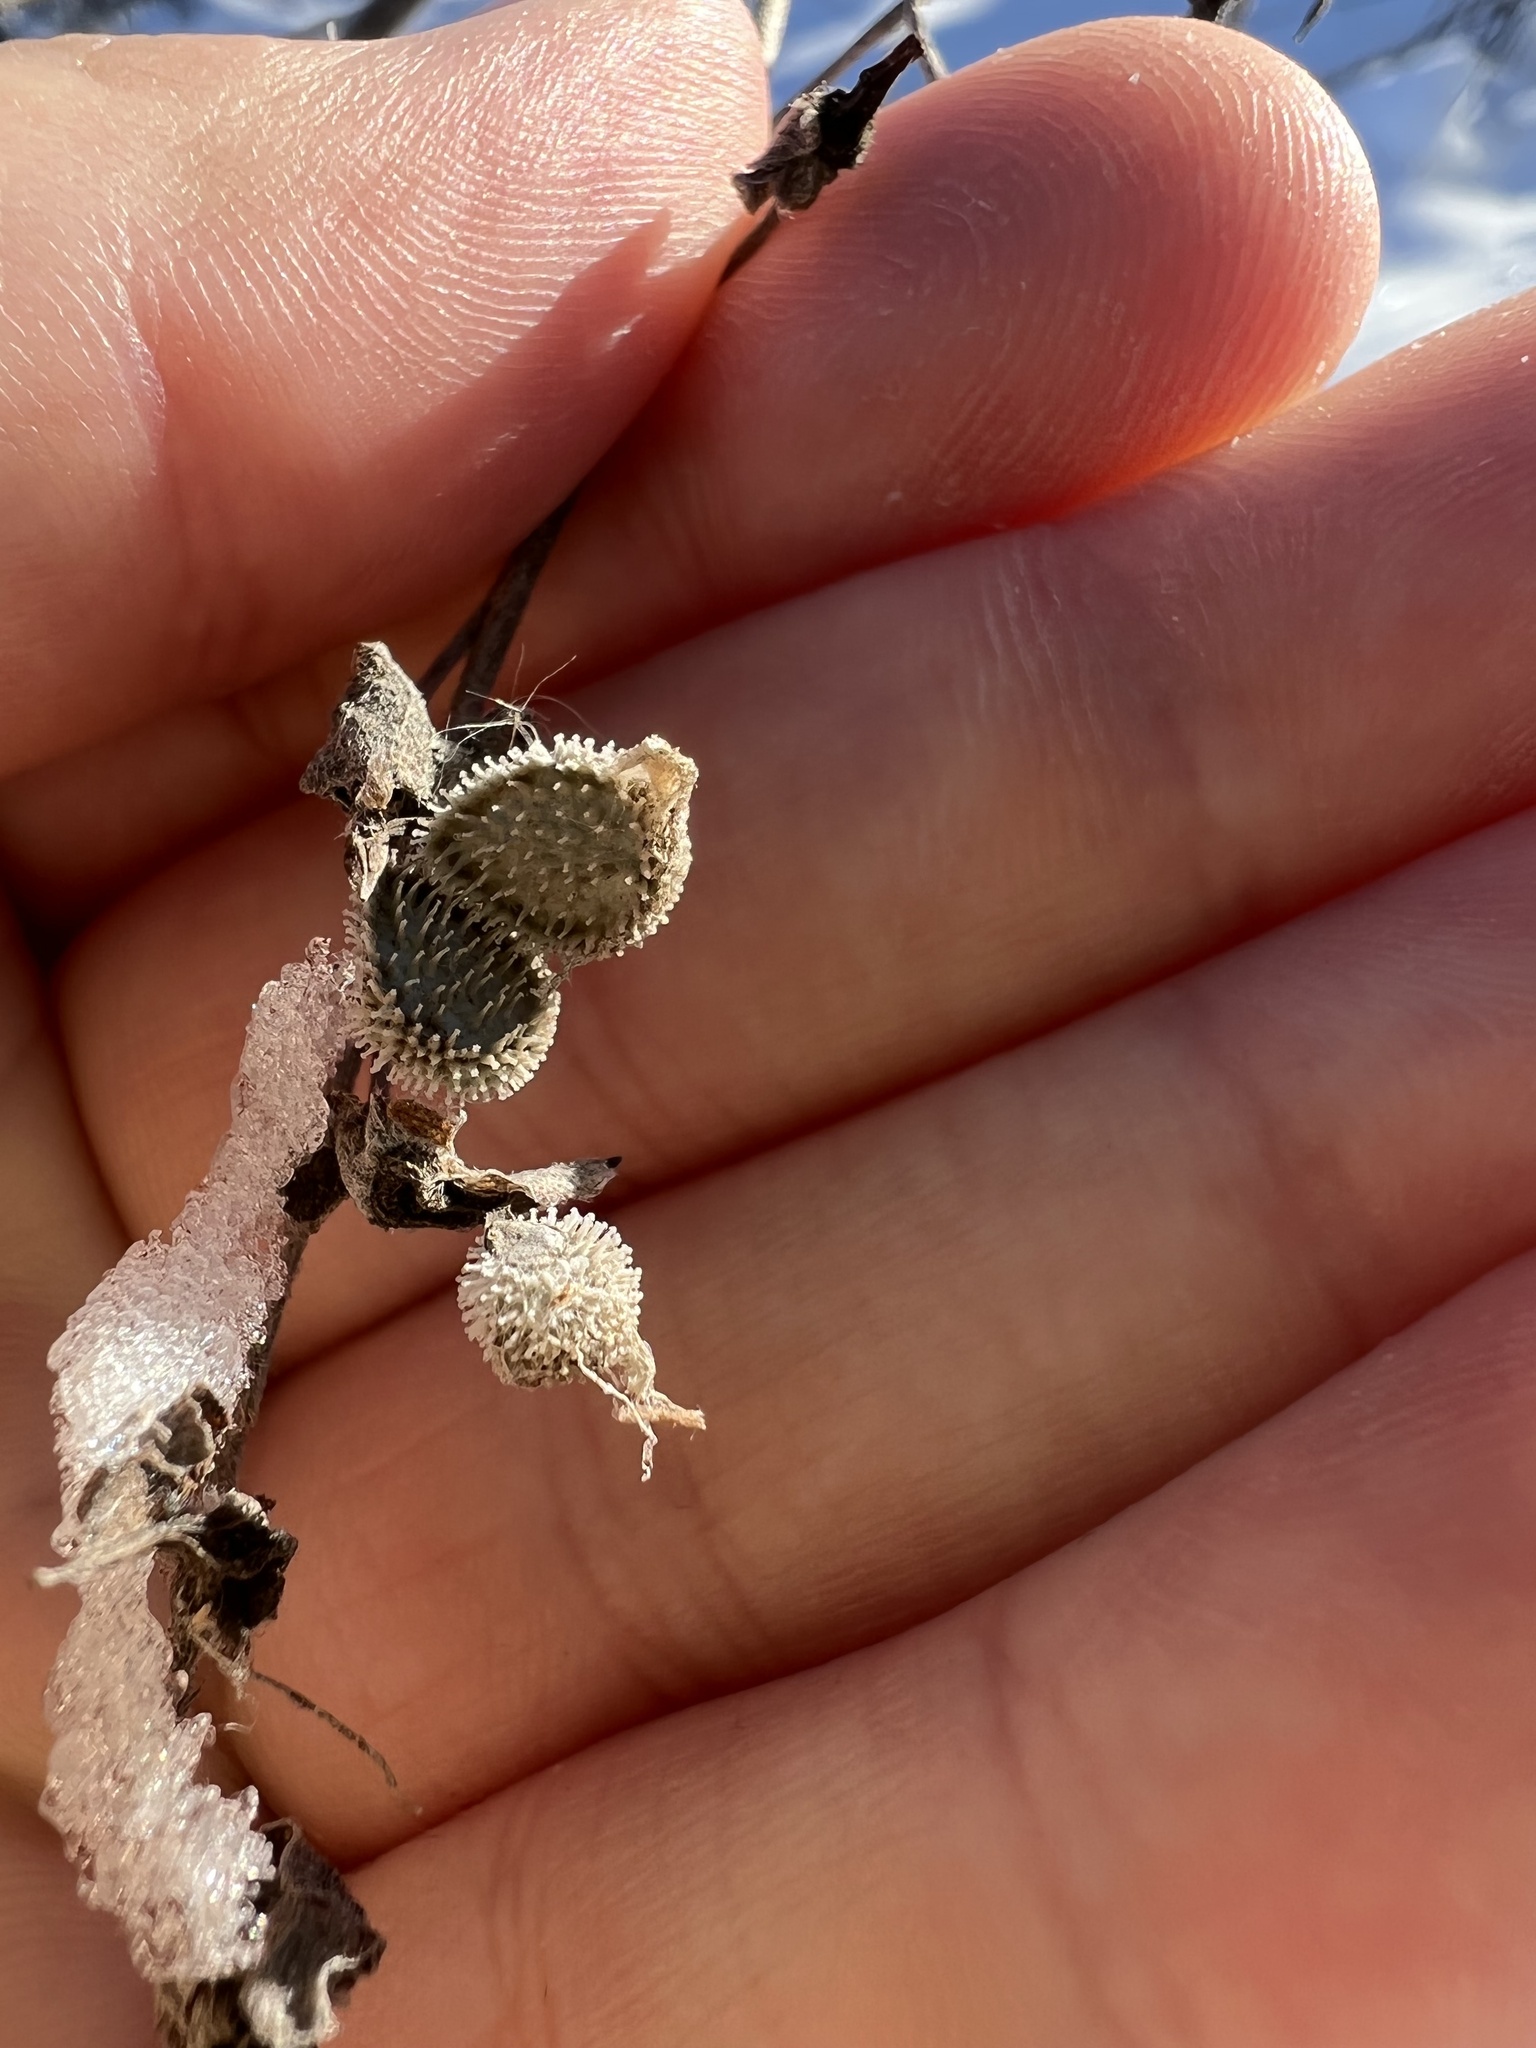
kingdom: Plantae
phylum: Tracheophyta
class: Magnoliopsida
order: Boraginales
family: Boraginaceae
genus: Cynoglossum
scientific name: Cynoglossum officinale
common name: Hound's-tongue
